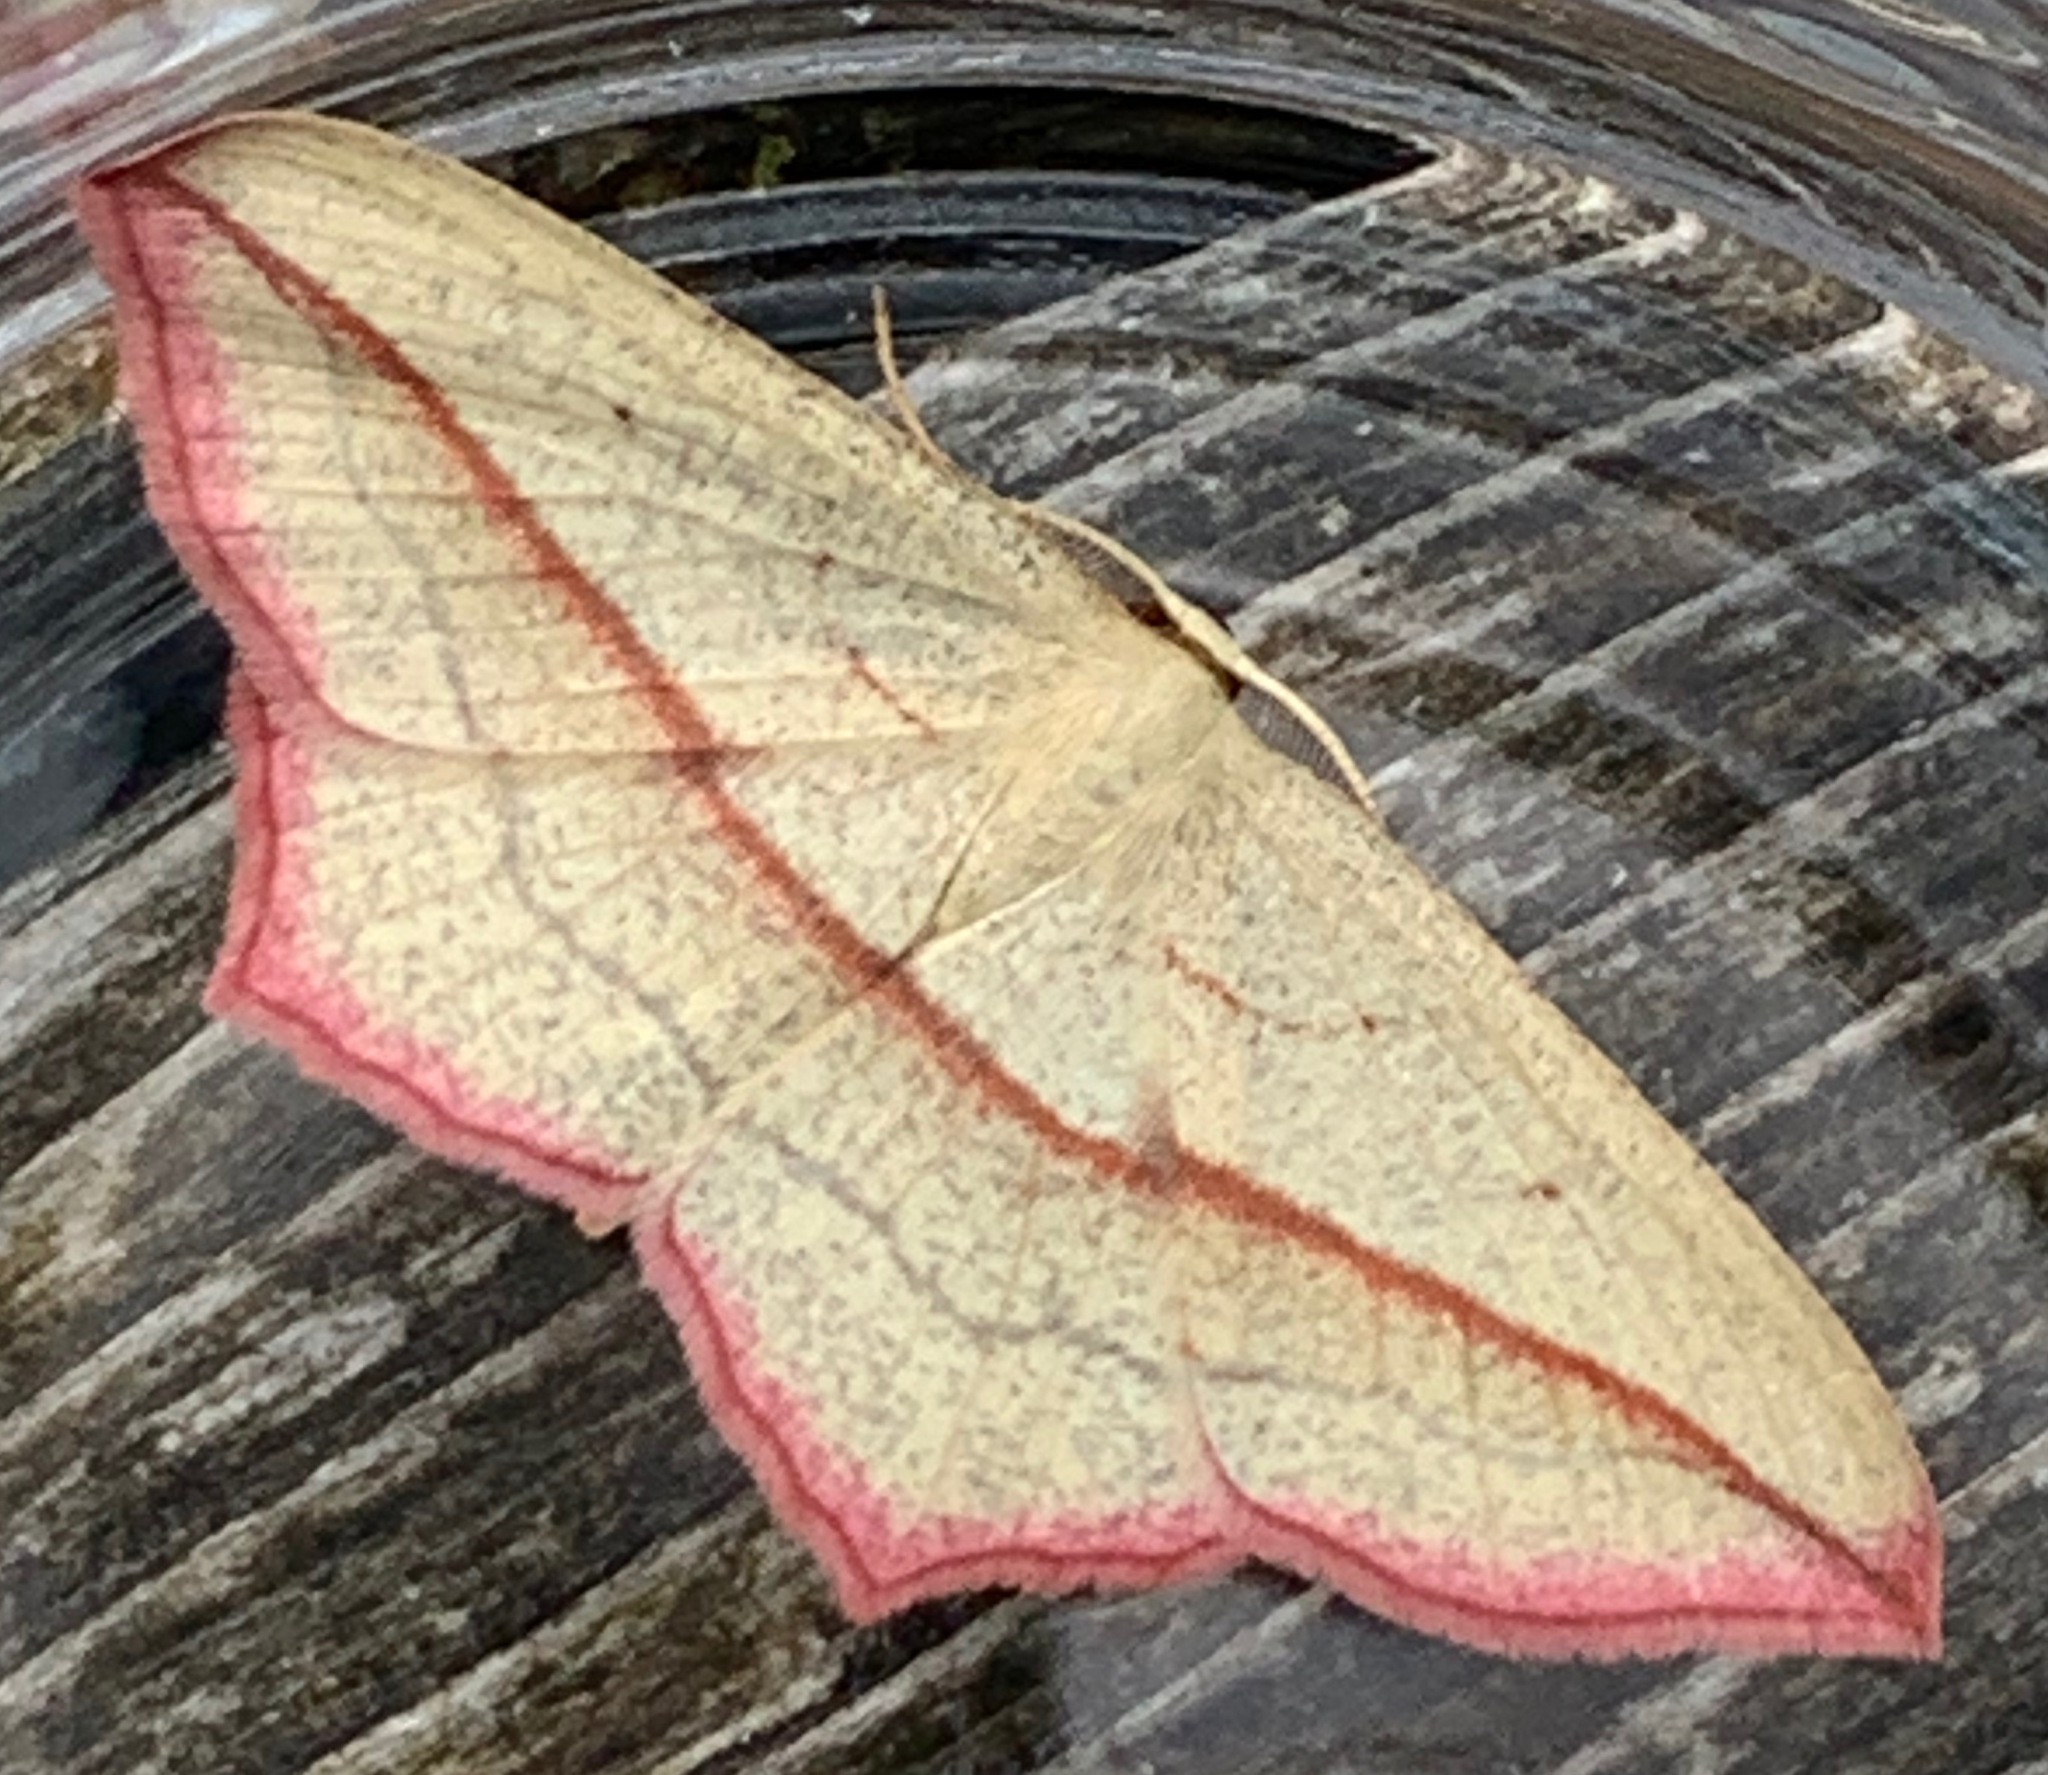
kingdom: Animalia
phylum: Arthropoda
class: Insecta
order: Lepidoptera
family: Geometridae
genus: Timandra
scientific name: Timandra comae
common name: Blood-vein
